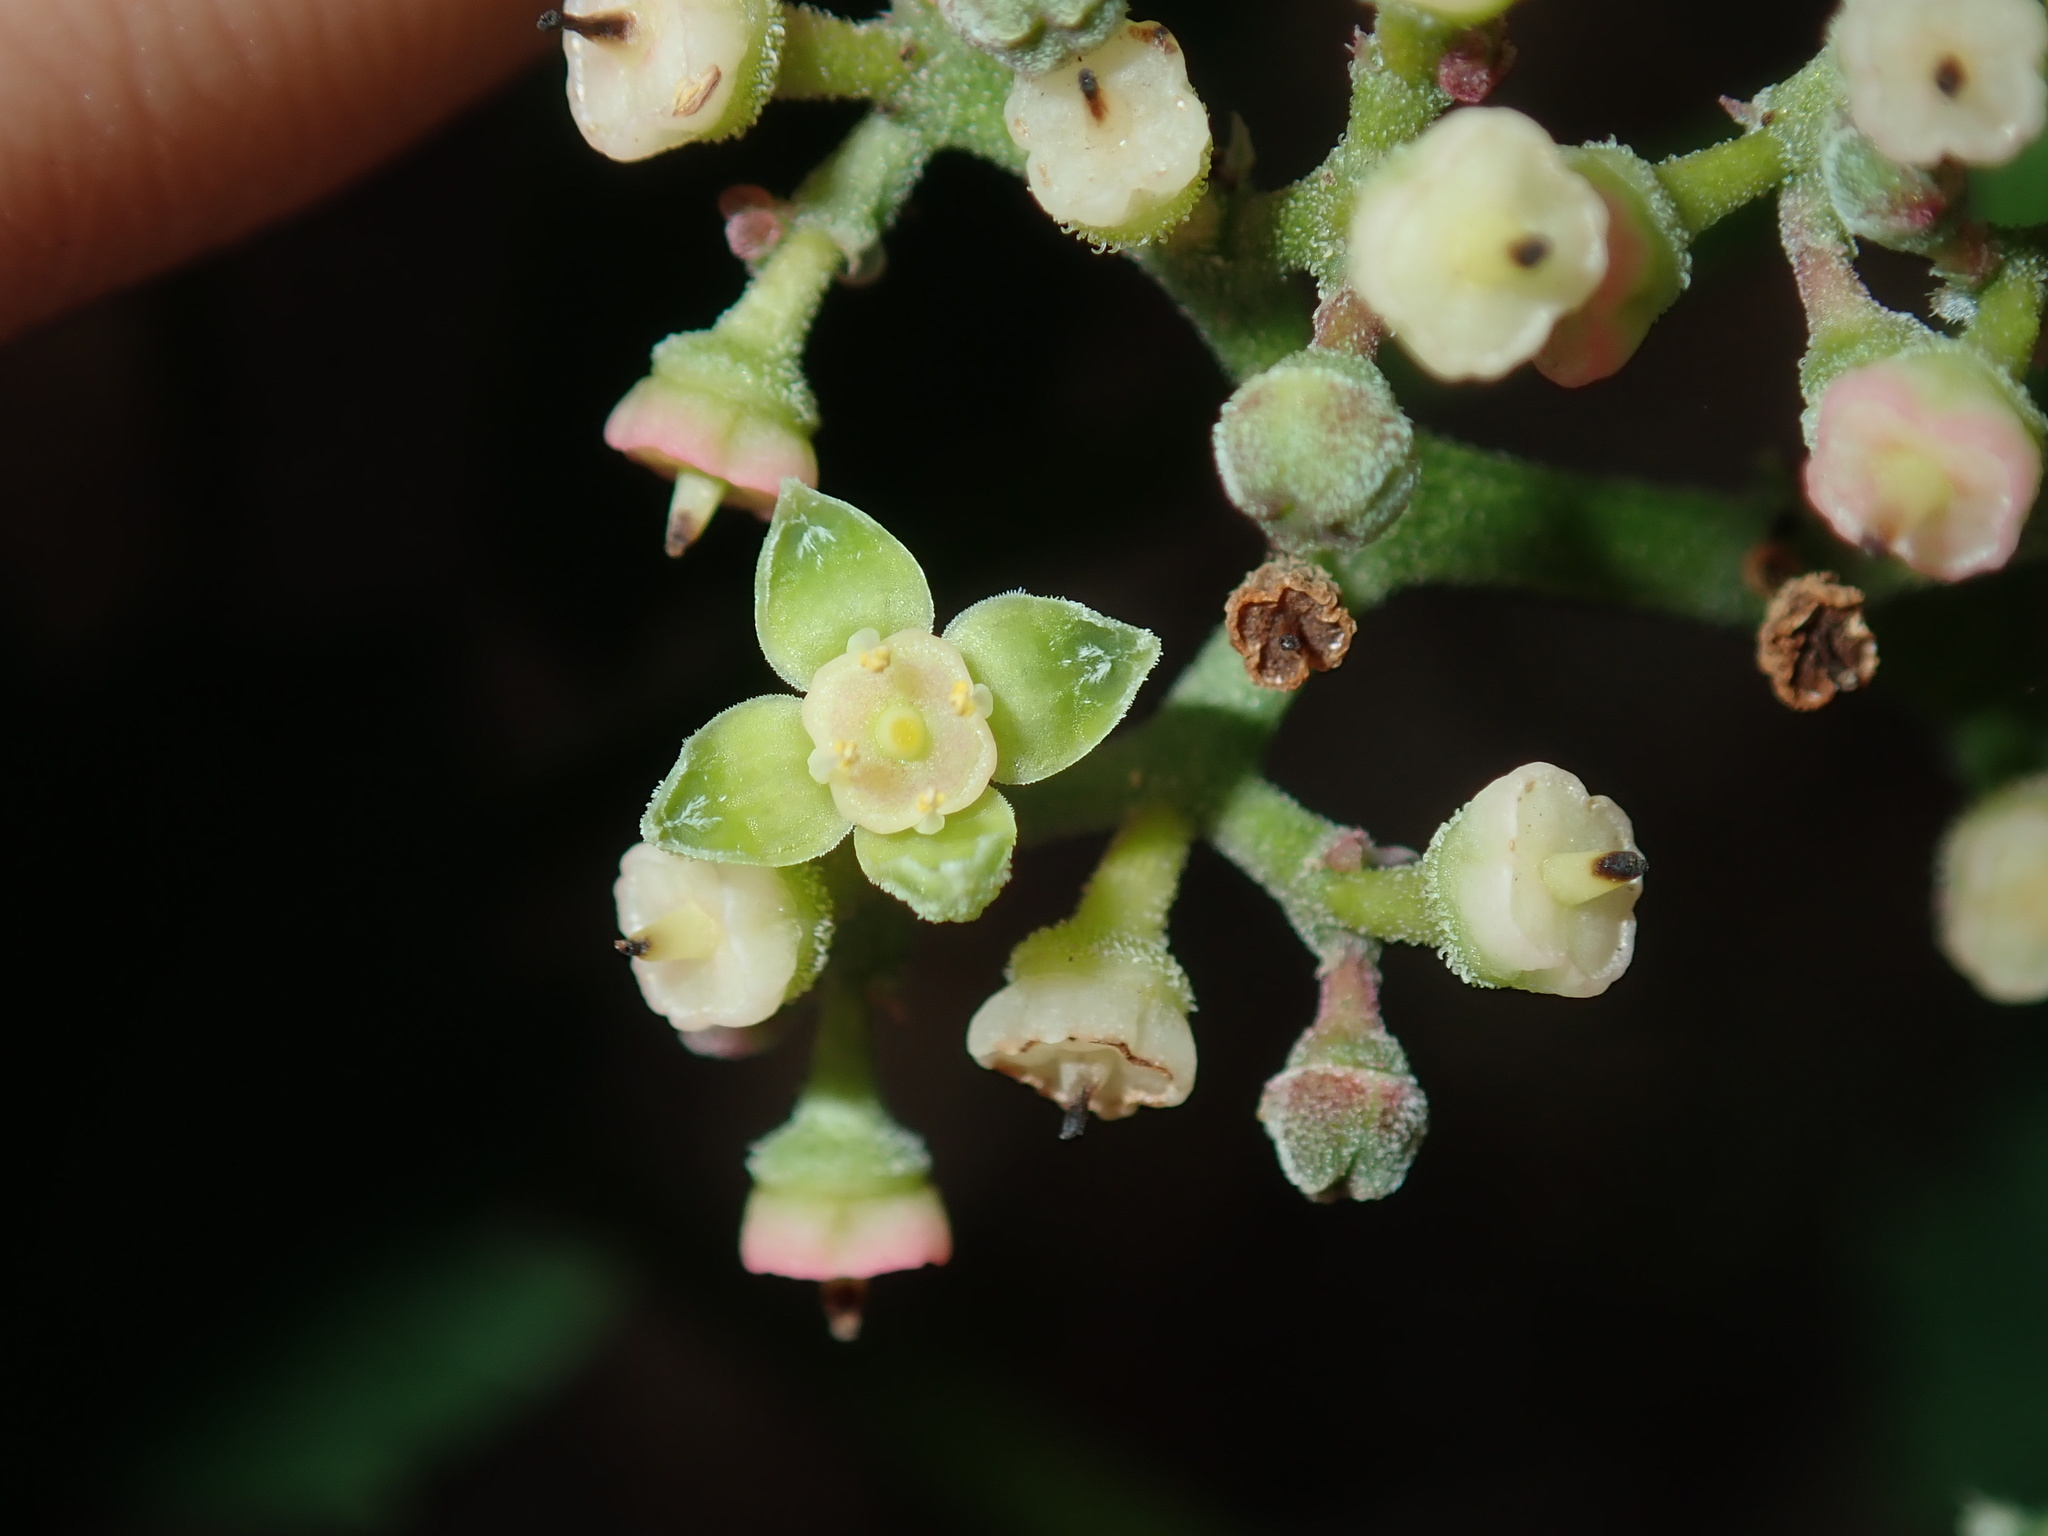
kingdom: Plantae
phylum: Tracheophyta
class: Magnoliopsida
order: Vitales
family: Vitaceae
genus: Causonis
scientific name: Causonis clematidea
